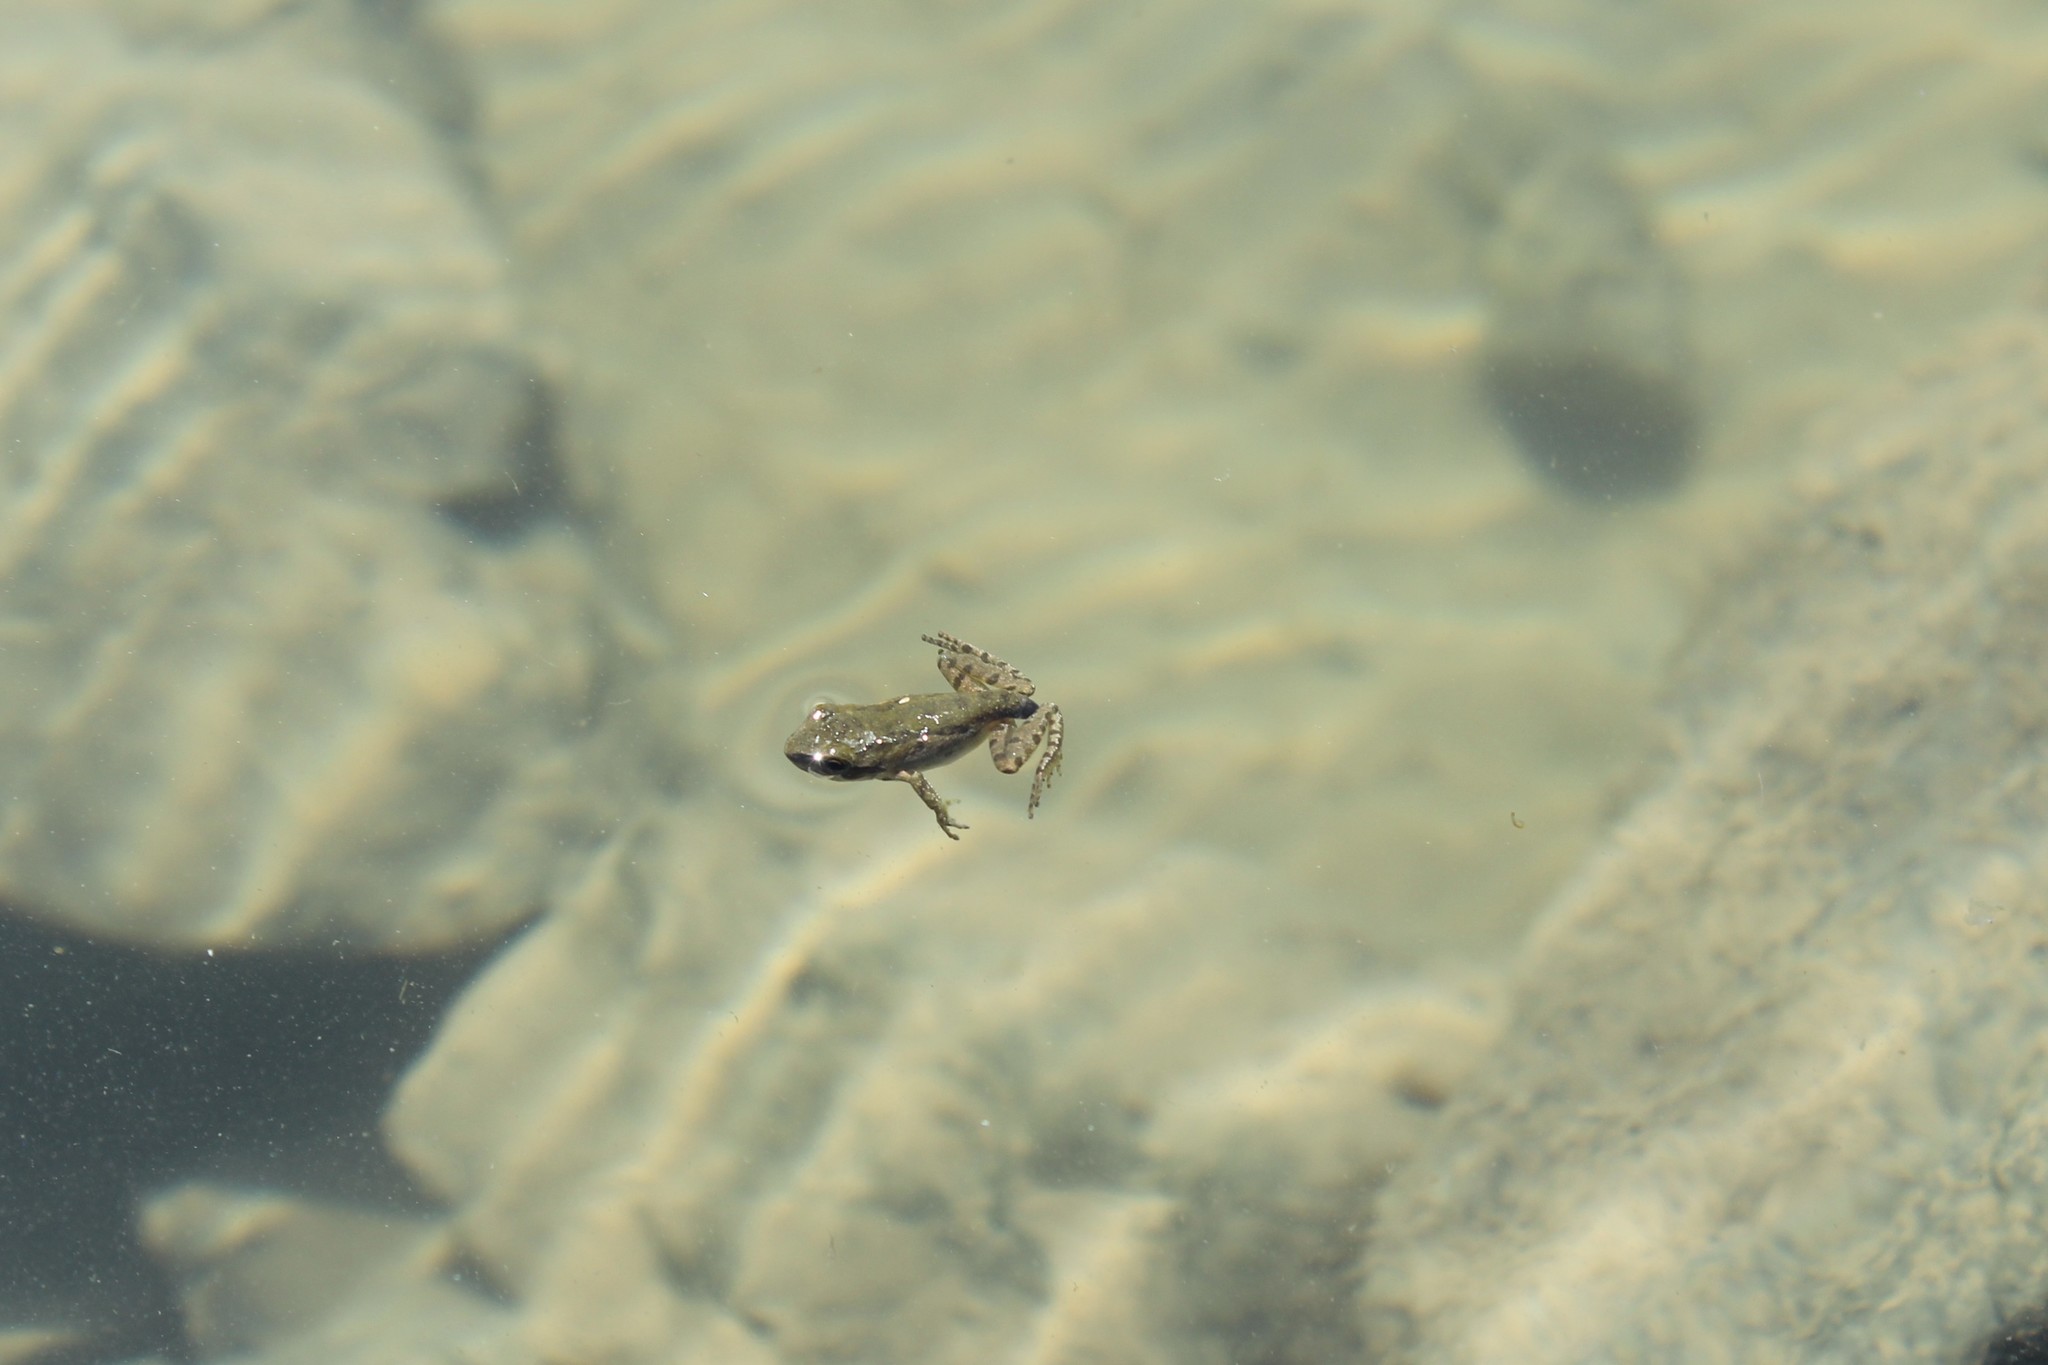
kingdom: Animalia
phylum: Chordata
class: Amphibia
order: Anura
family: Hylidae
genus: Pseudacris
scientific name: Pseudacris regilla
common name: Pacific chorus frog
